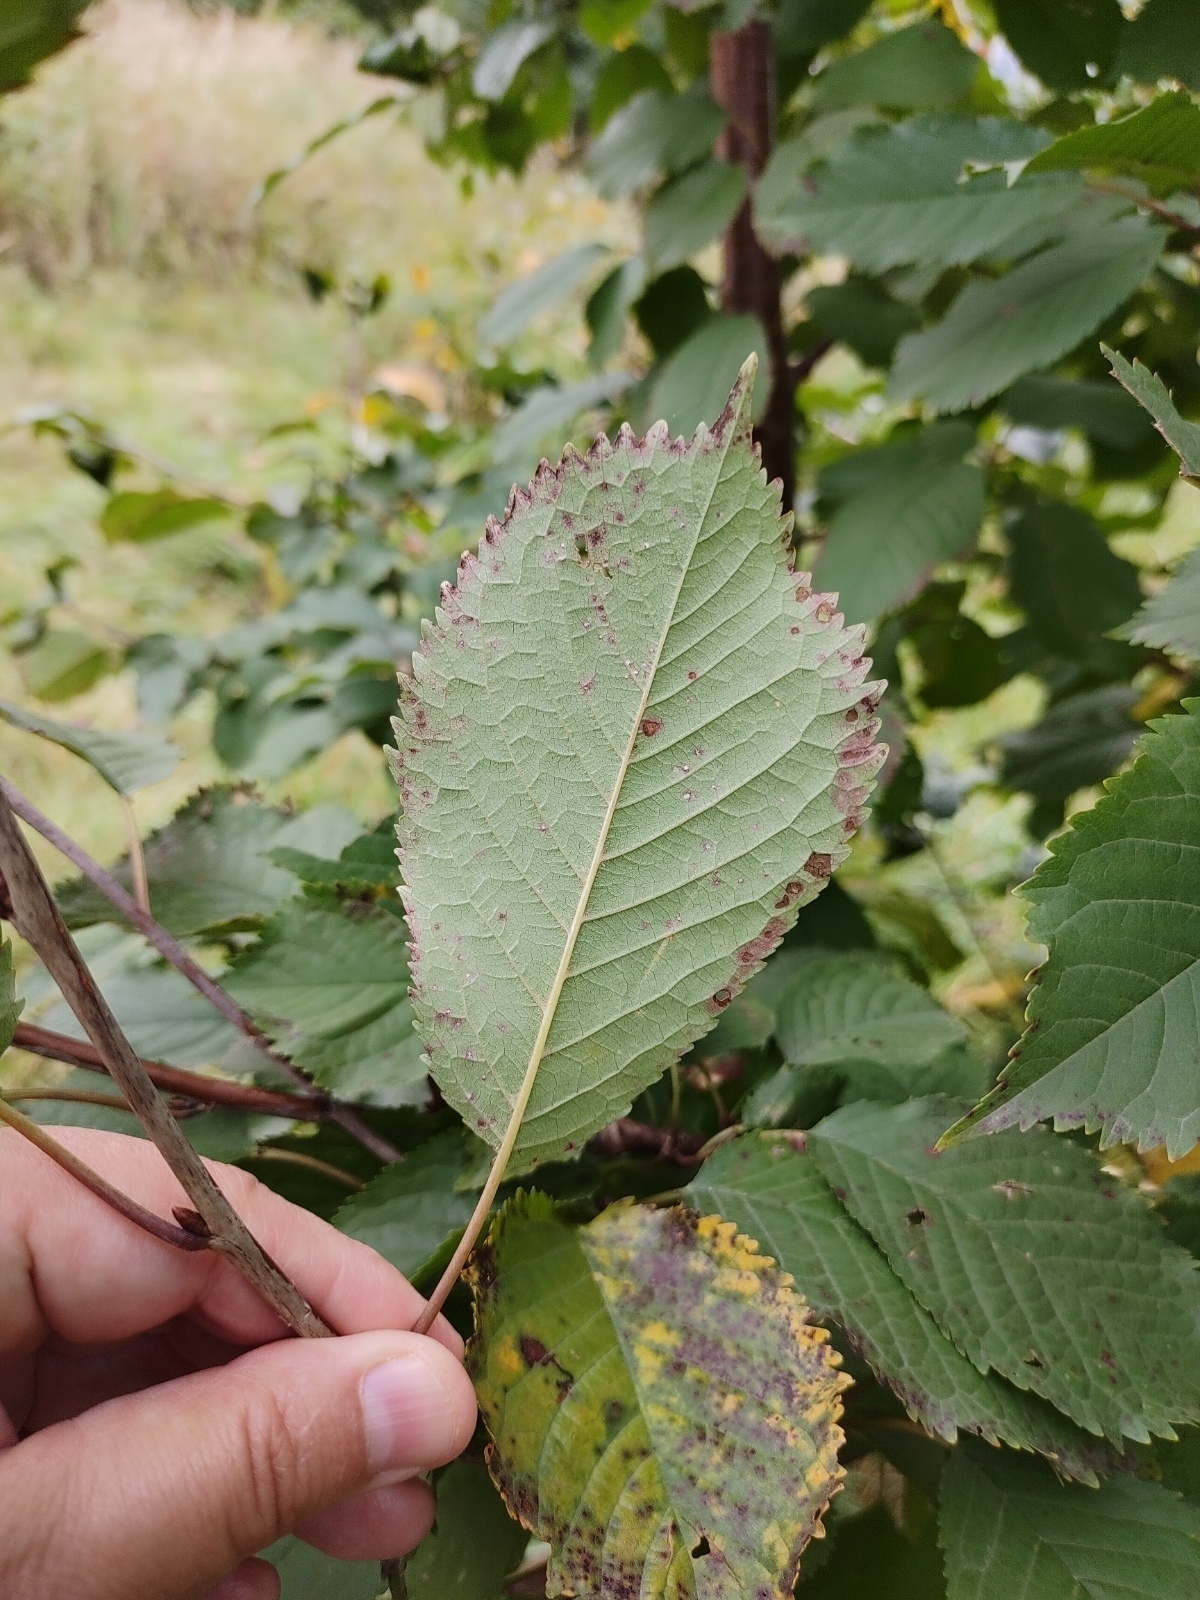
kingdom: Plantae
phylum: Tracheophyta
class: Magnoliopsida
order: Rosales
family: Rosaceae
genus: Prunus
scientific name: Prunus avium
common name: Sweet cherry
